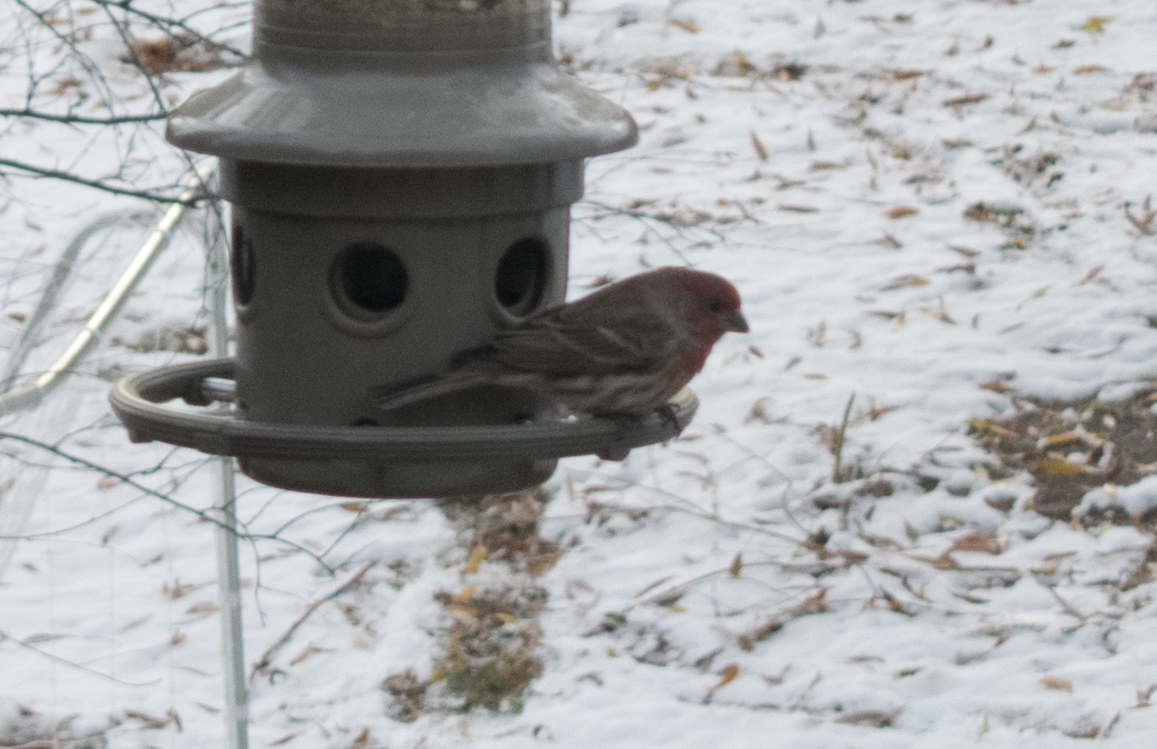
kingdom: Animalia
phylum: Chordata
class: Aves
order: Passeriformes
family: Fringillidae
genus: Haemorhous
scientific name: Haemorhous mexicanus
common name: House finch
